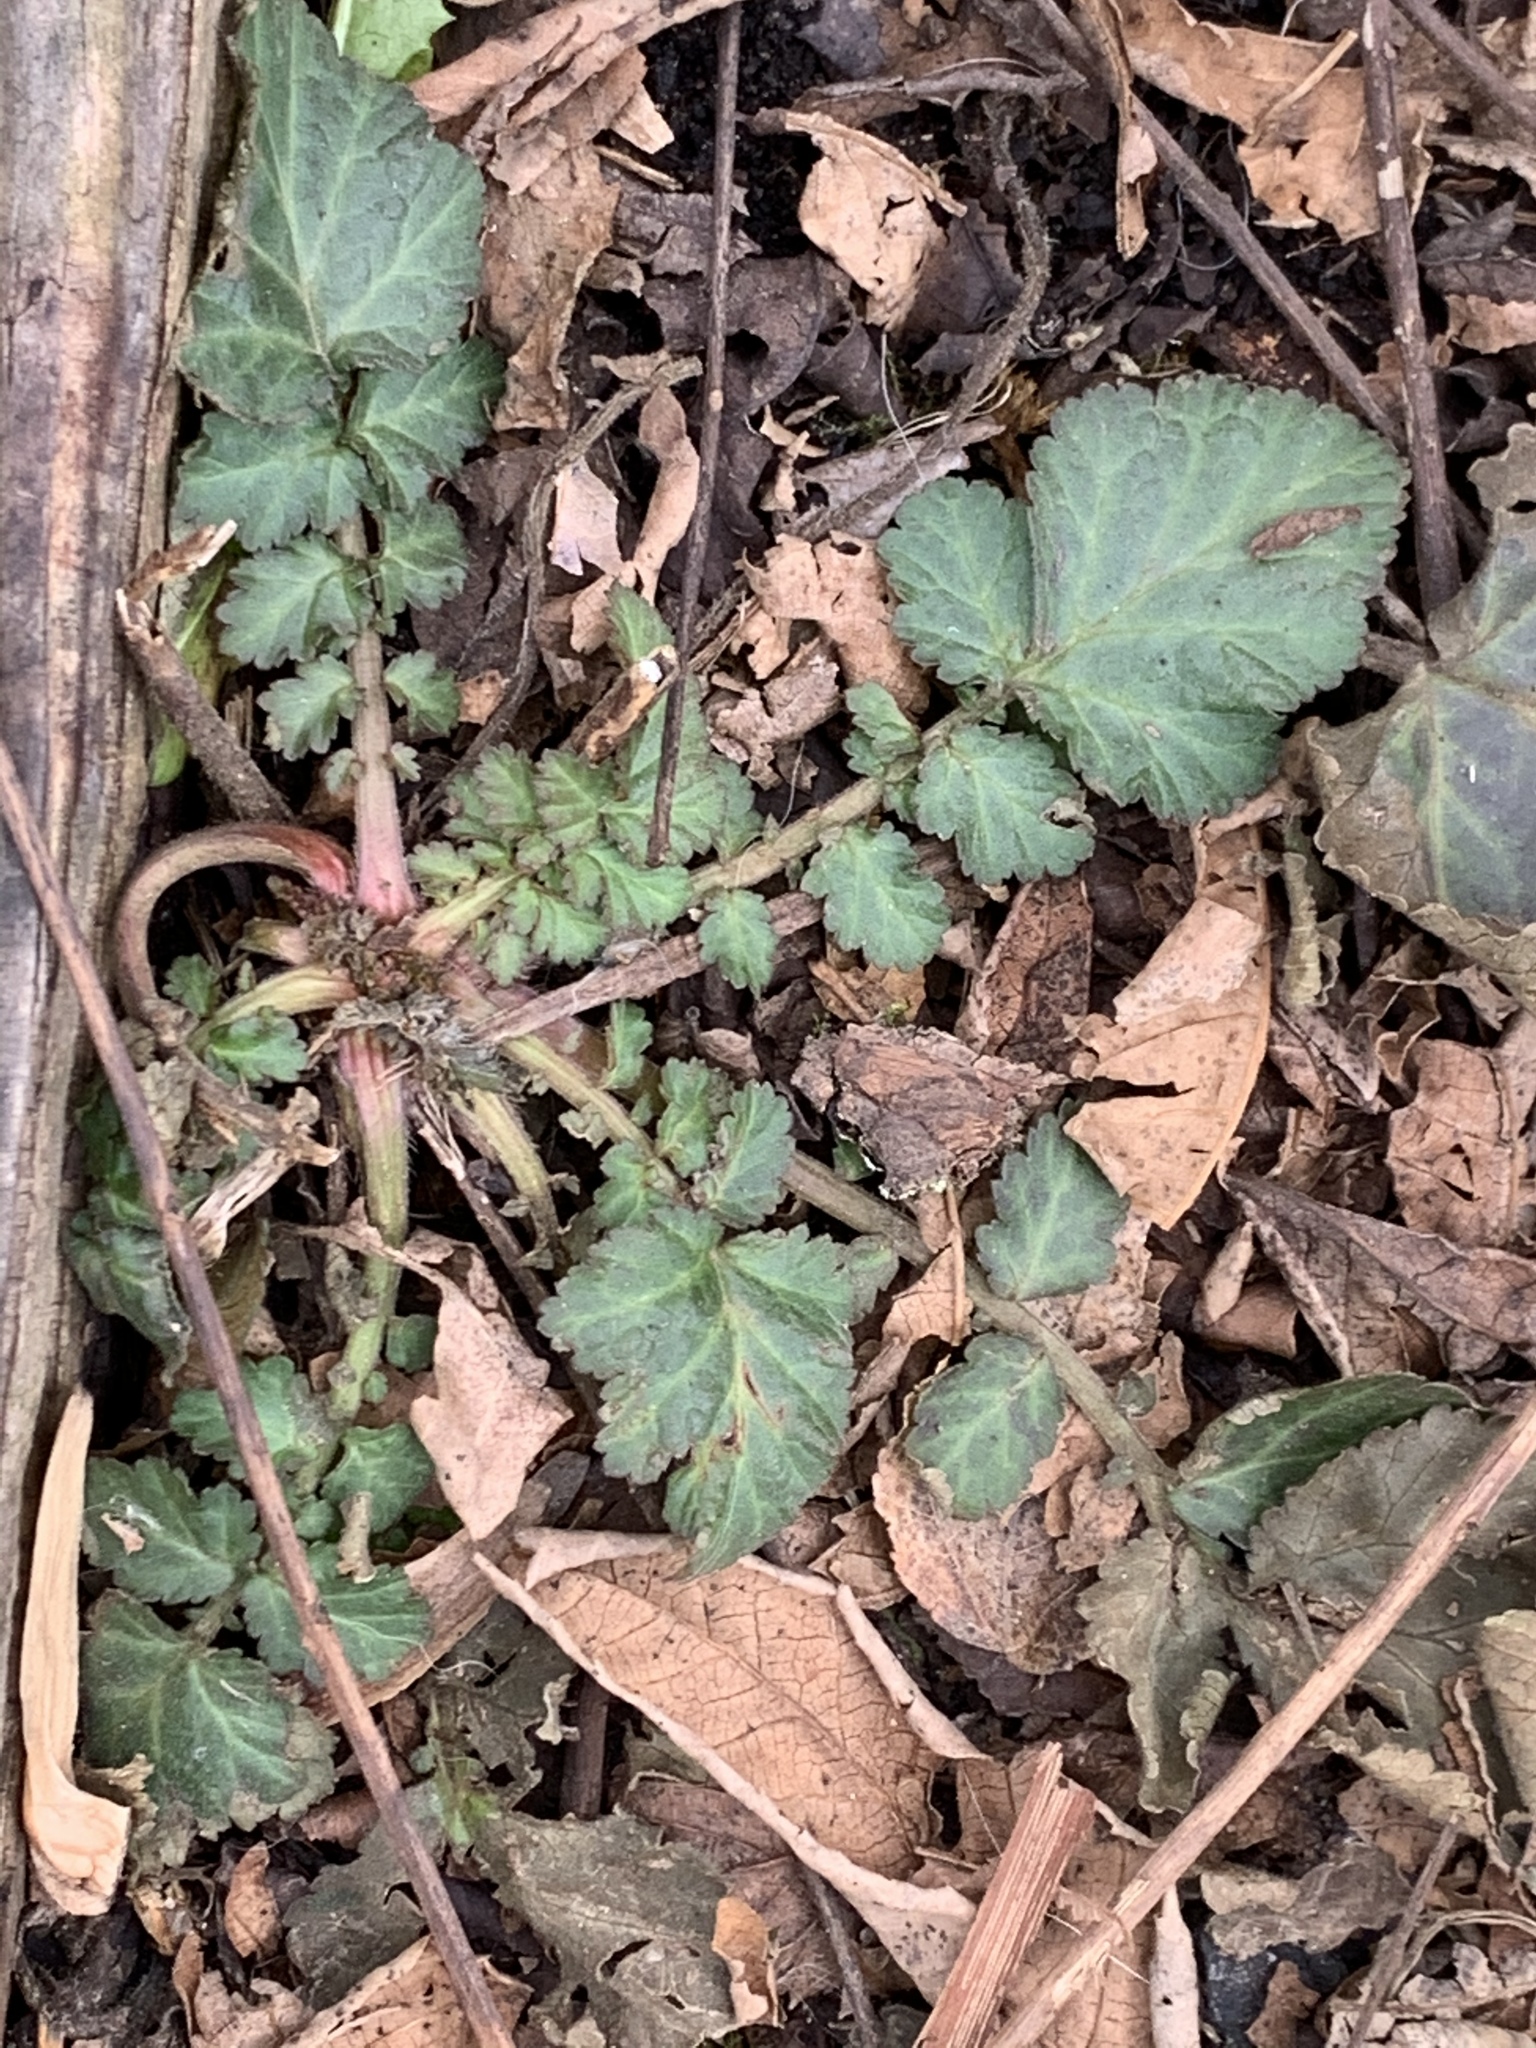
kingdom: Plantae
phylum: Tracheophyta
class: Magnoliopsida
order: Rosales
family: Rosaceae
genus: Geum
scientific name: Geum canadense
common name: White avens
